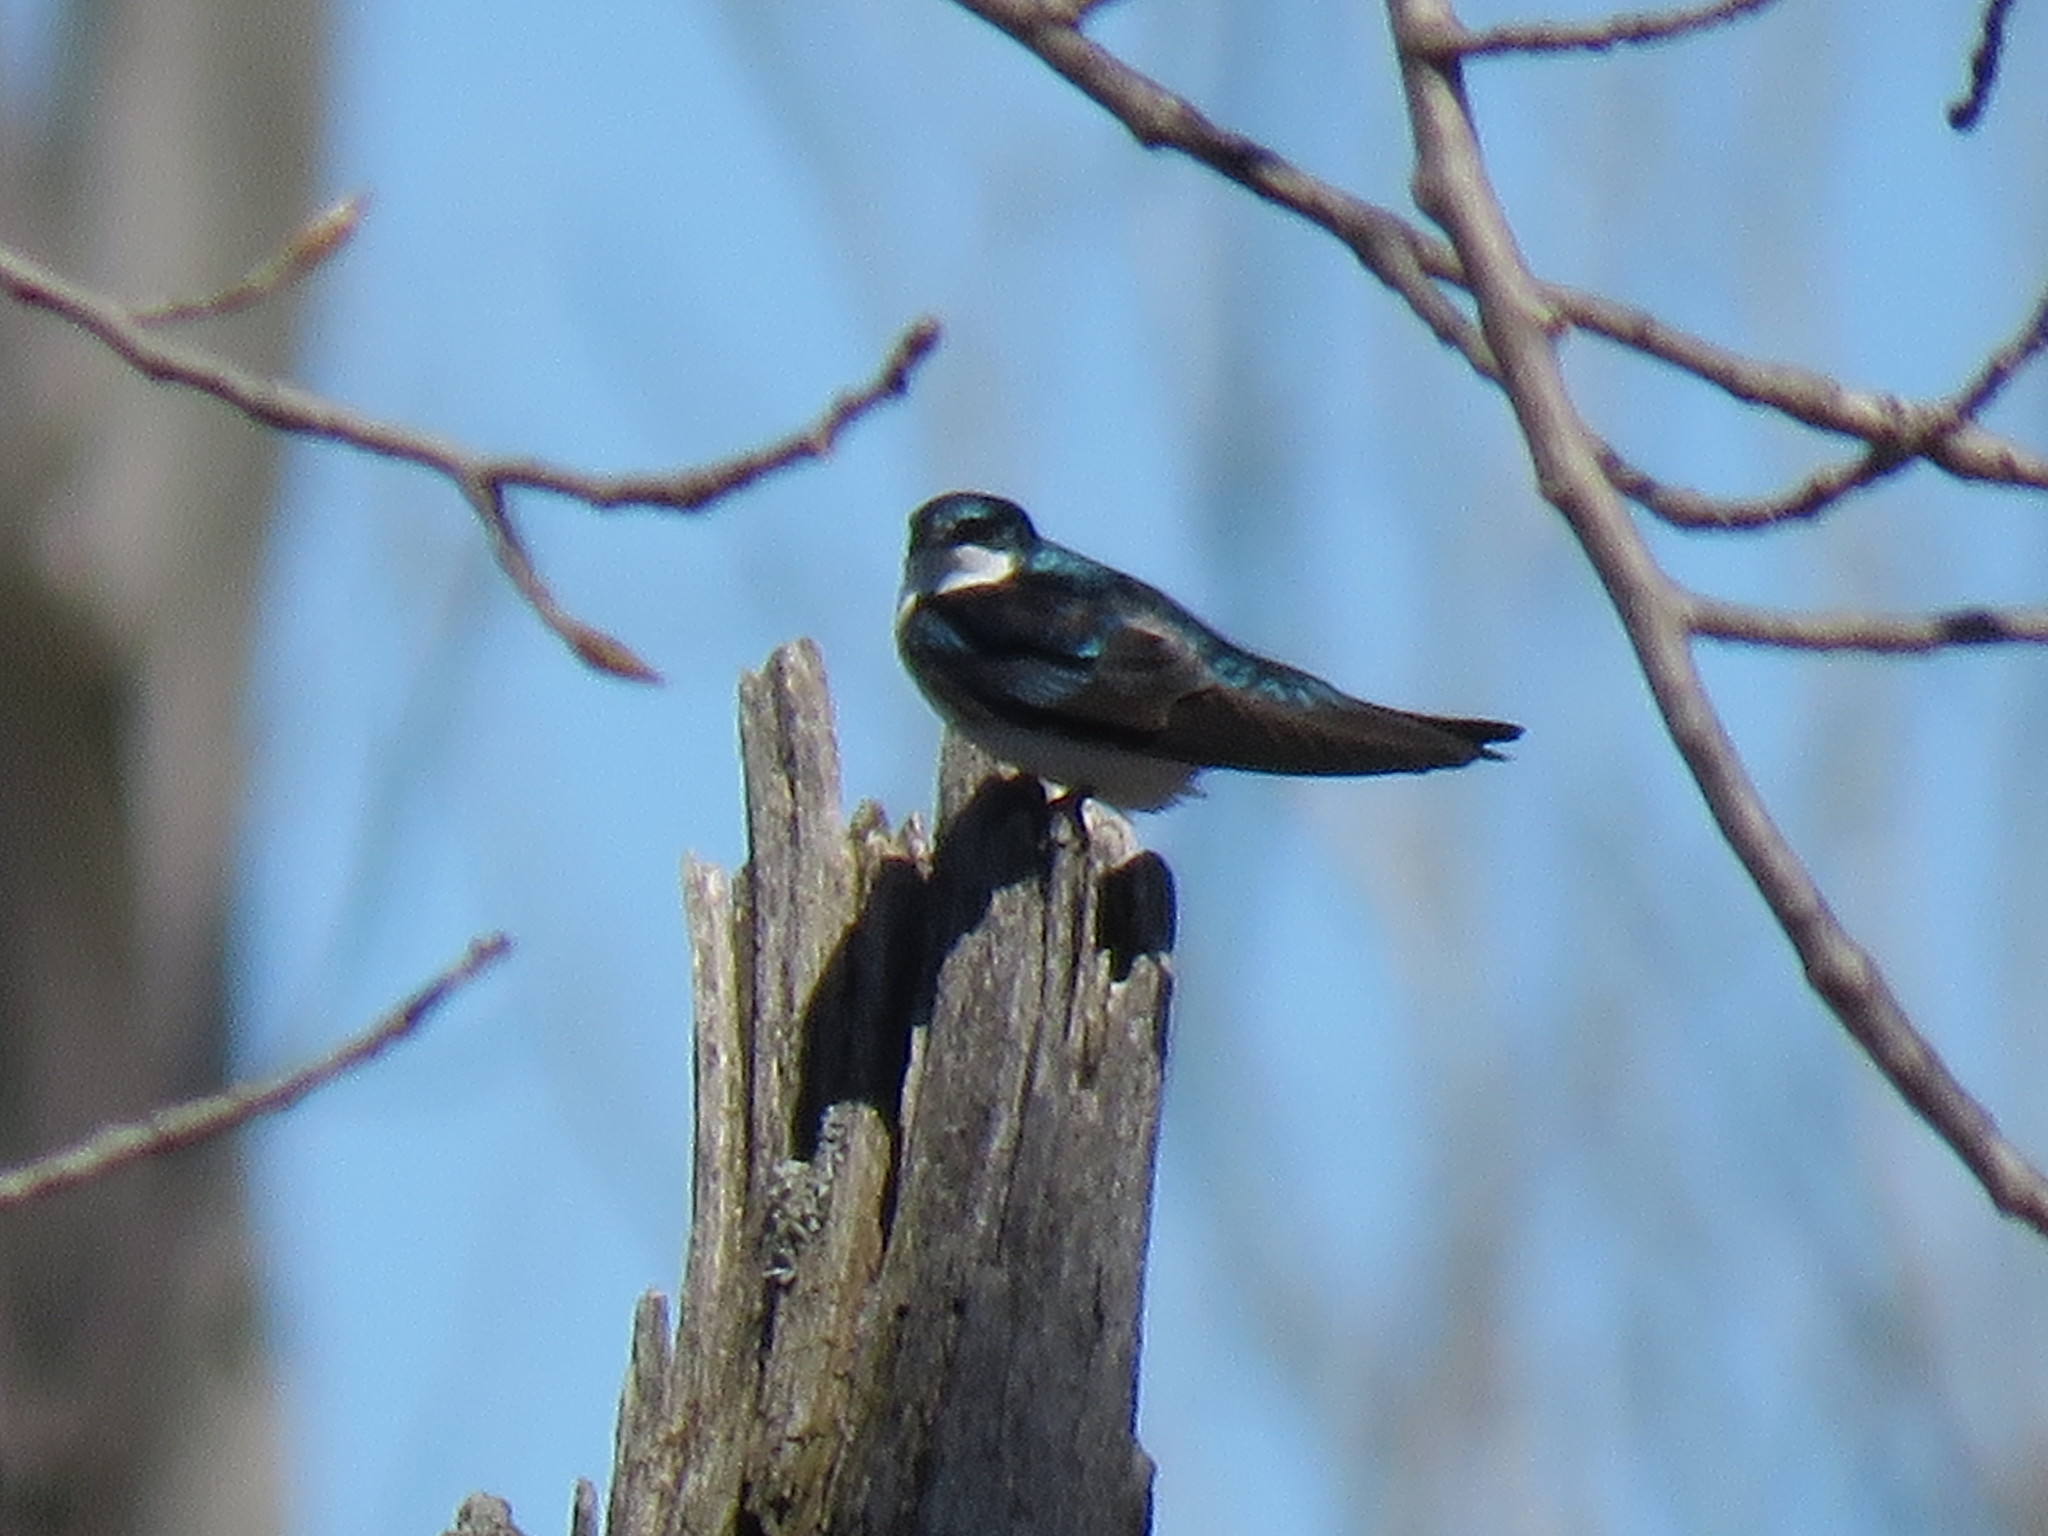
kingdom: Animalia
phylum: Chordata
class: Aves
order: Passeriformes
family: Hirundinidae
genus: Tachycineta
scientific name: Tachycineta bicolor
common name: Tree swallow
